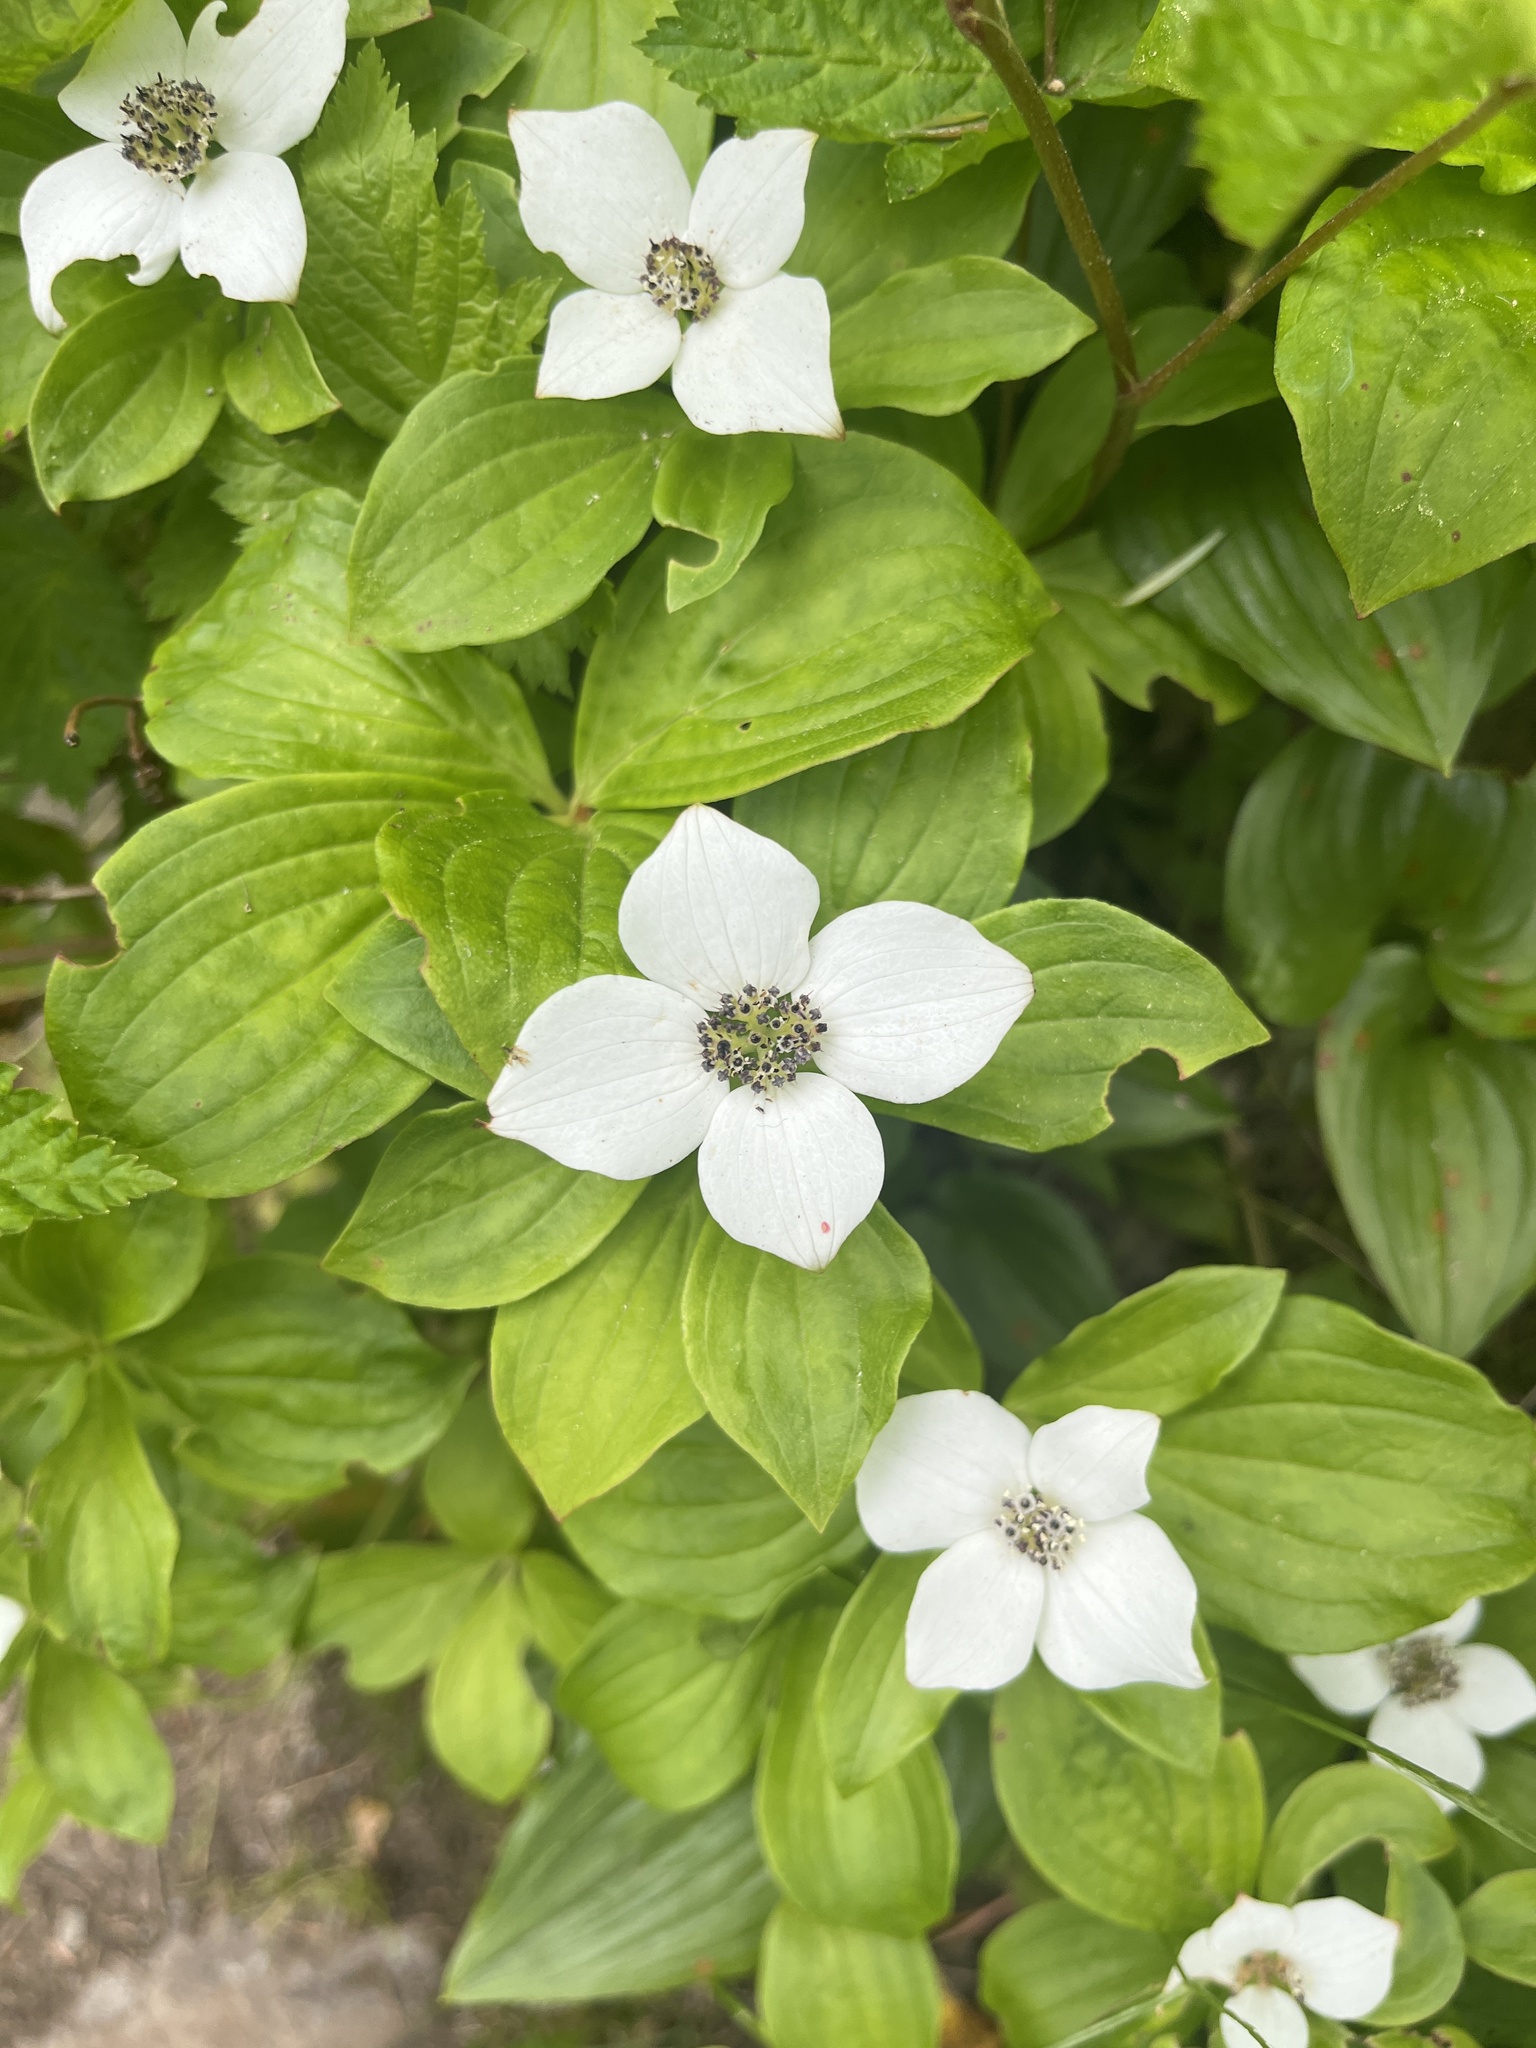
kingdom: Plantae
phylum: Tracheophyta
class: Magnoliopsida
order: Cornales
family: Cornaceae
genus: Cornus
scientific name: Cornus unalaschkensis
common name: Alaska bunchberry
